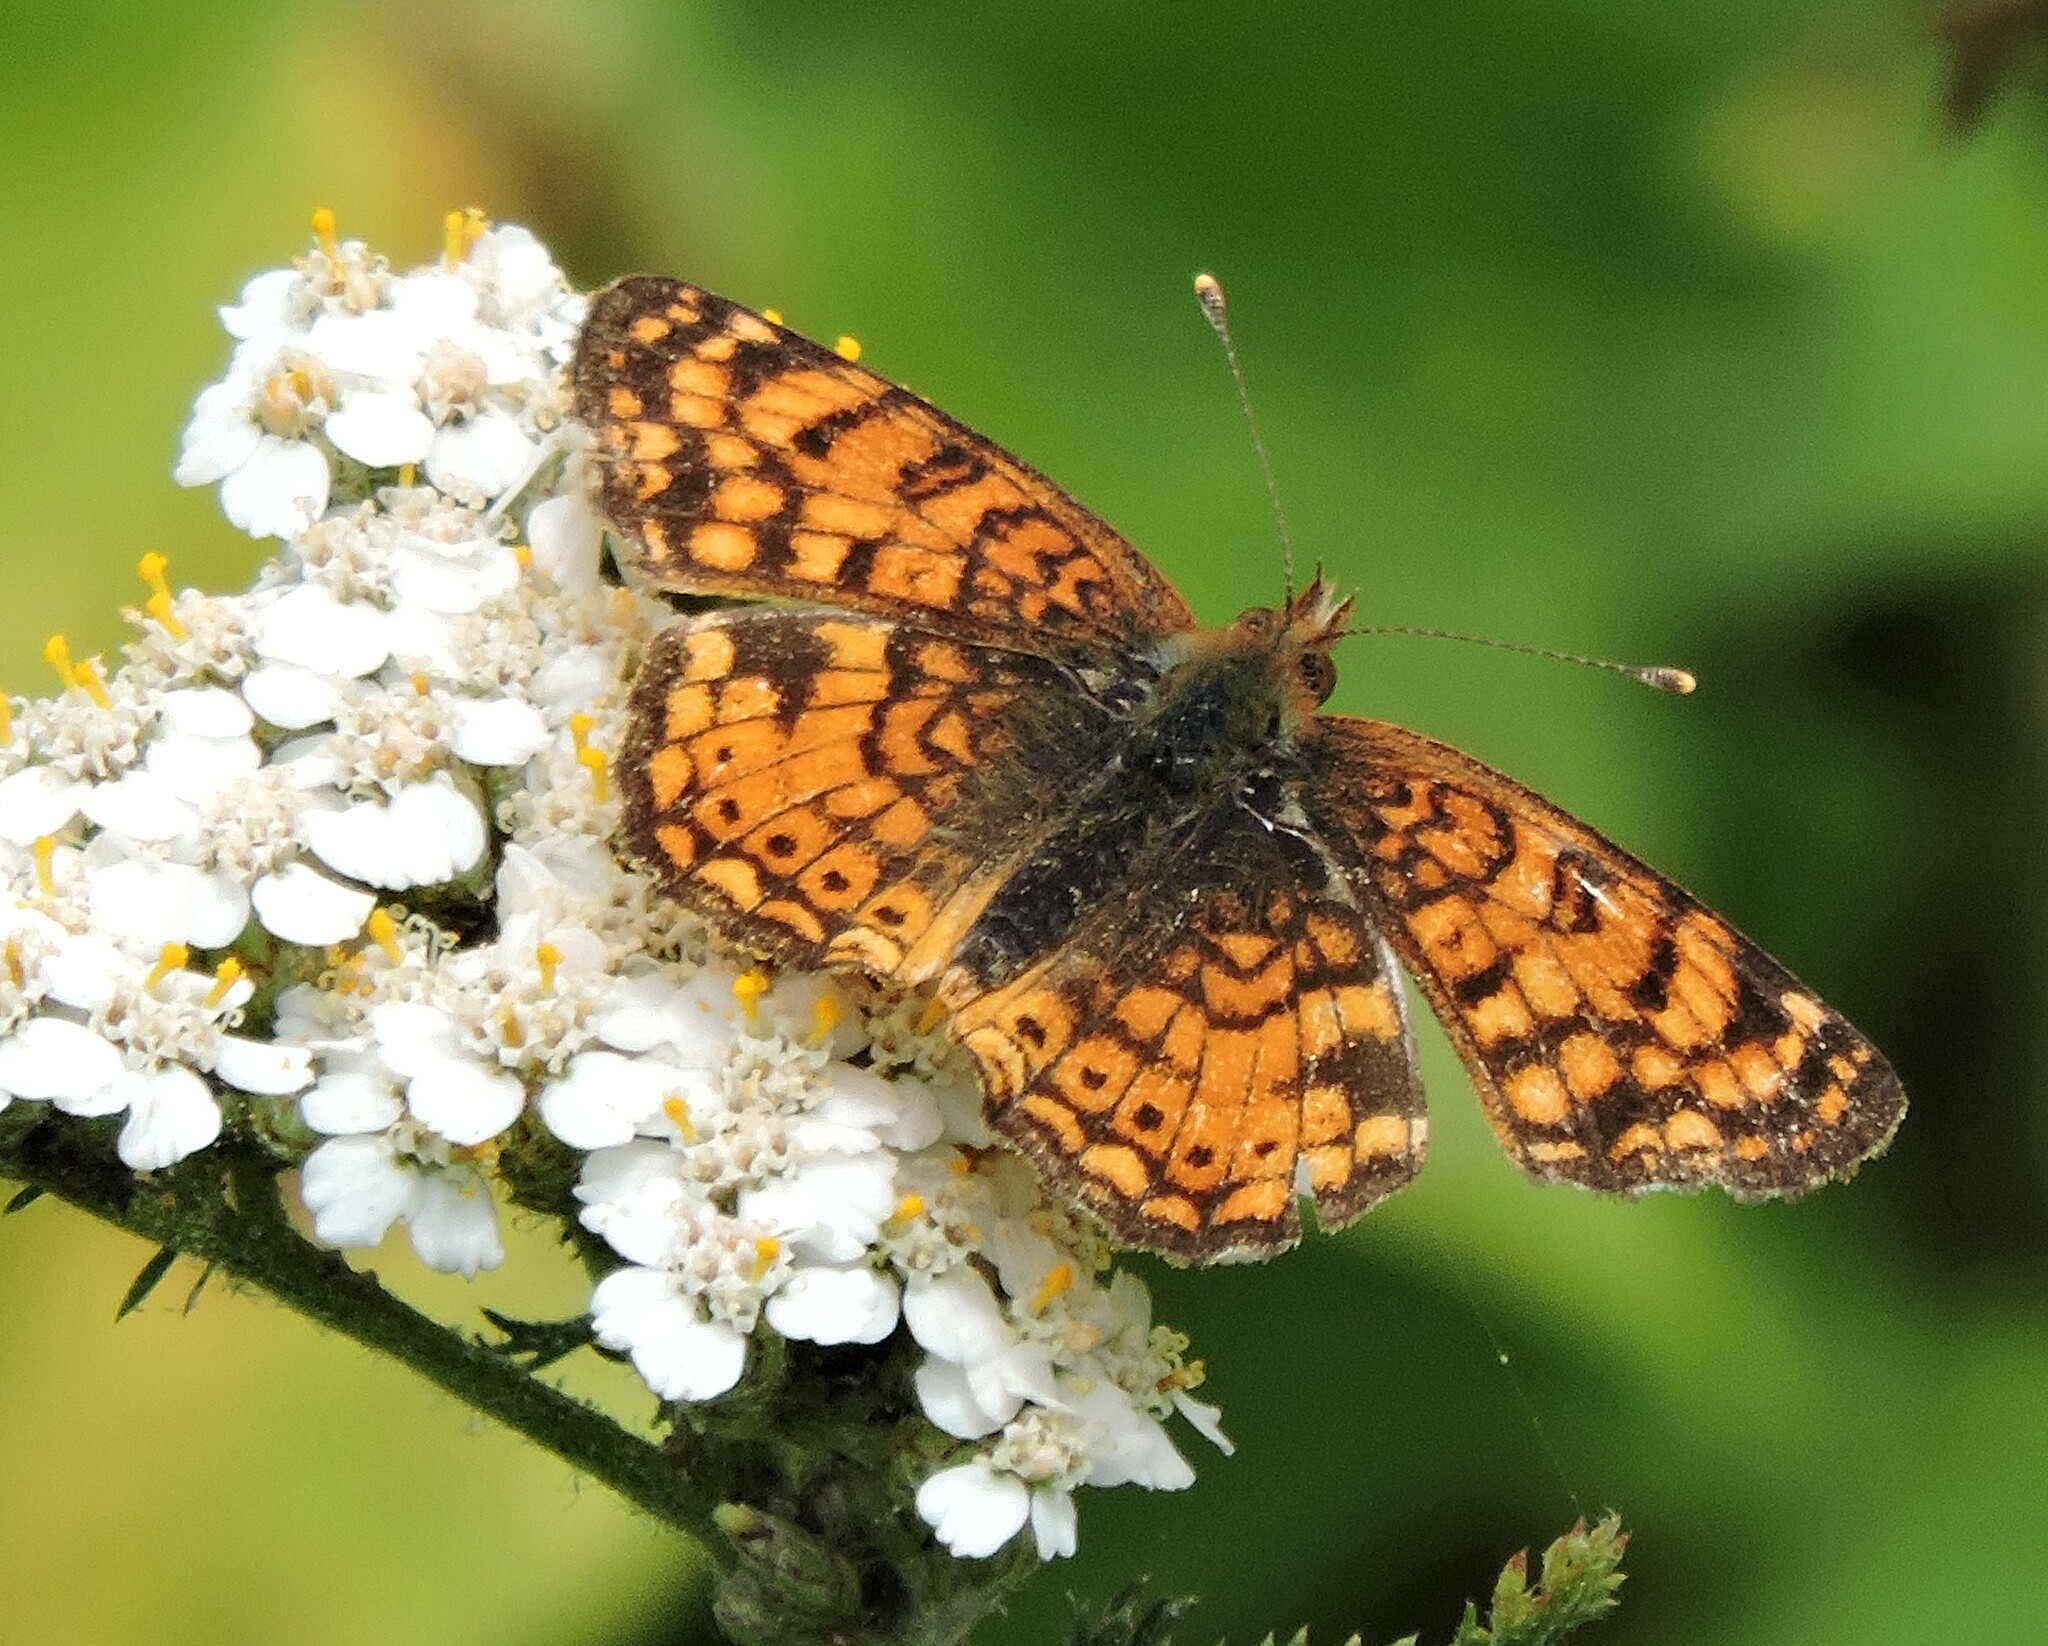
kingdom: Animalia
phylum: Arthropoda
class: Insecta
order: Lepidoptera
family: Nymphalidae
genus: Eresia
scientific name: Eresia aveyrona
